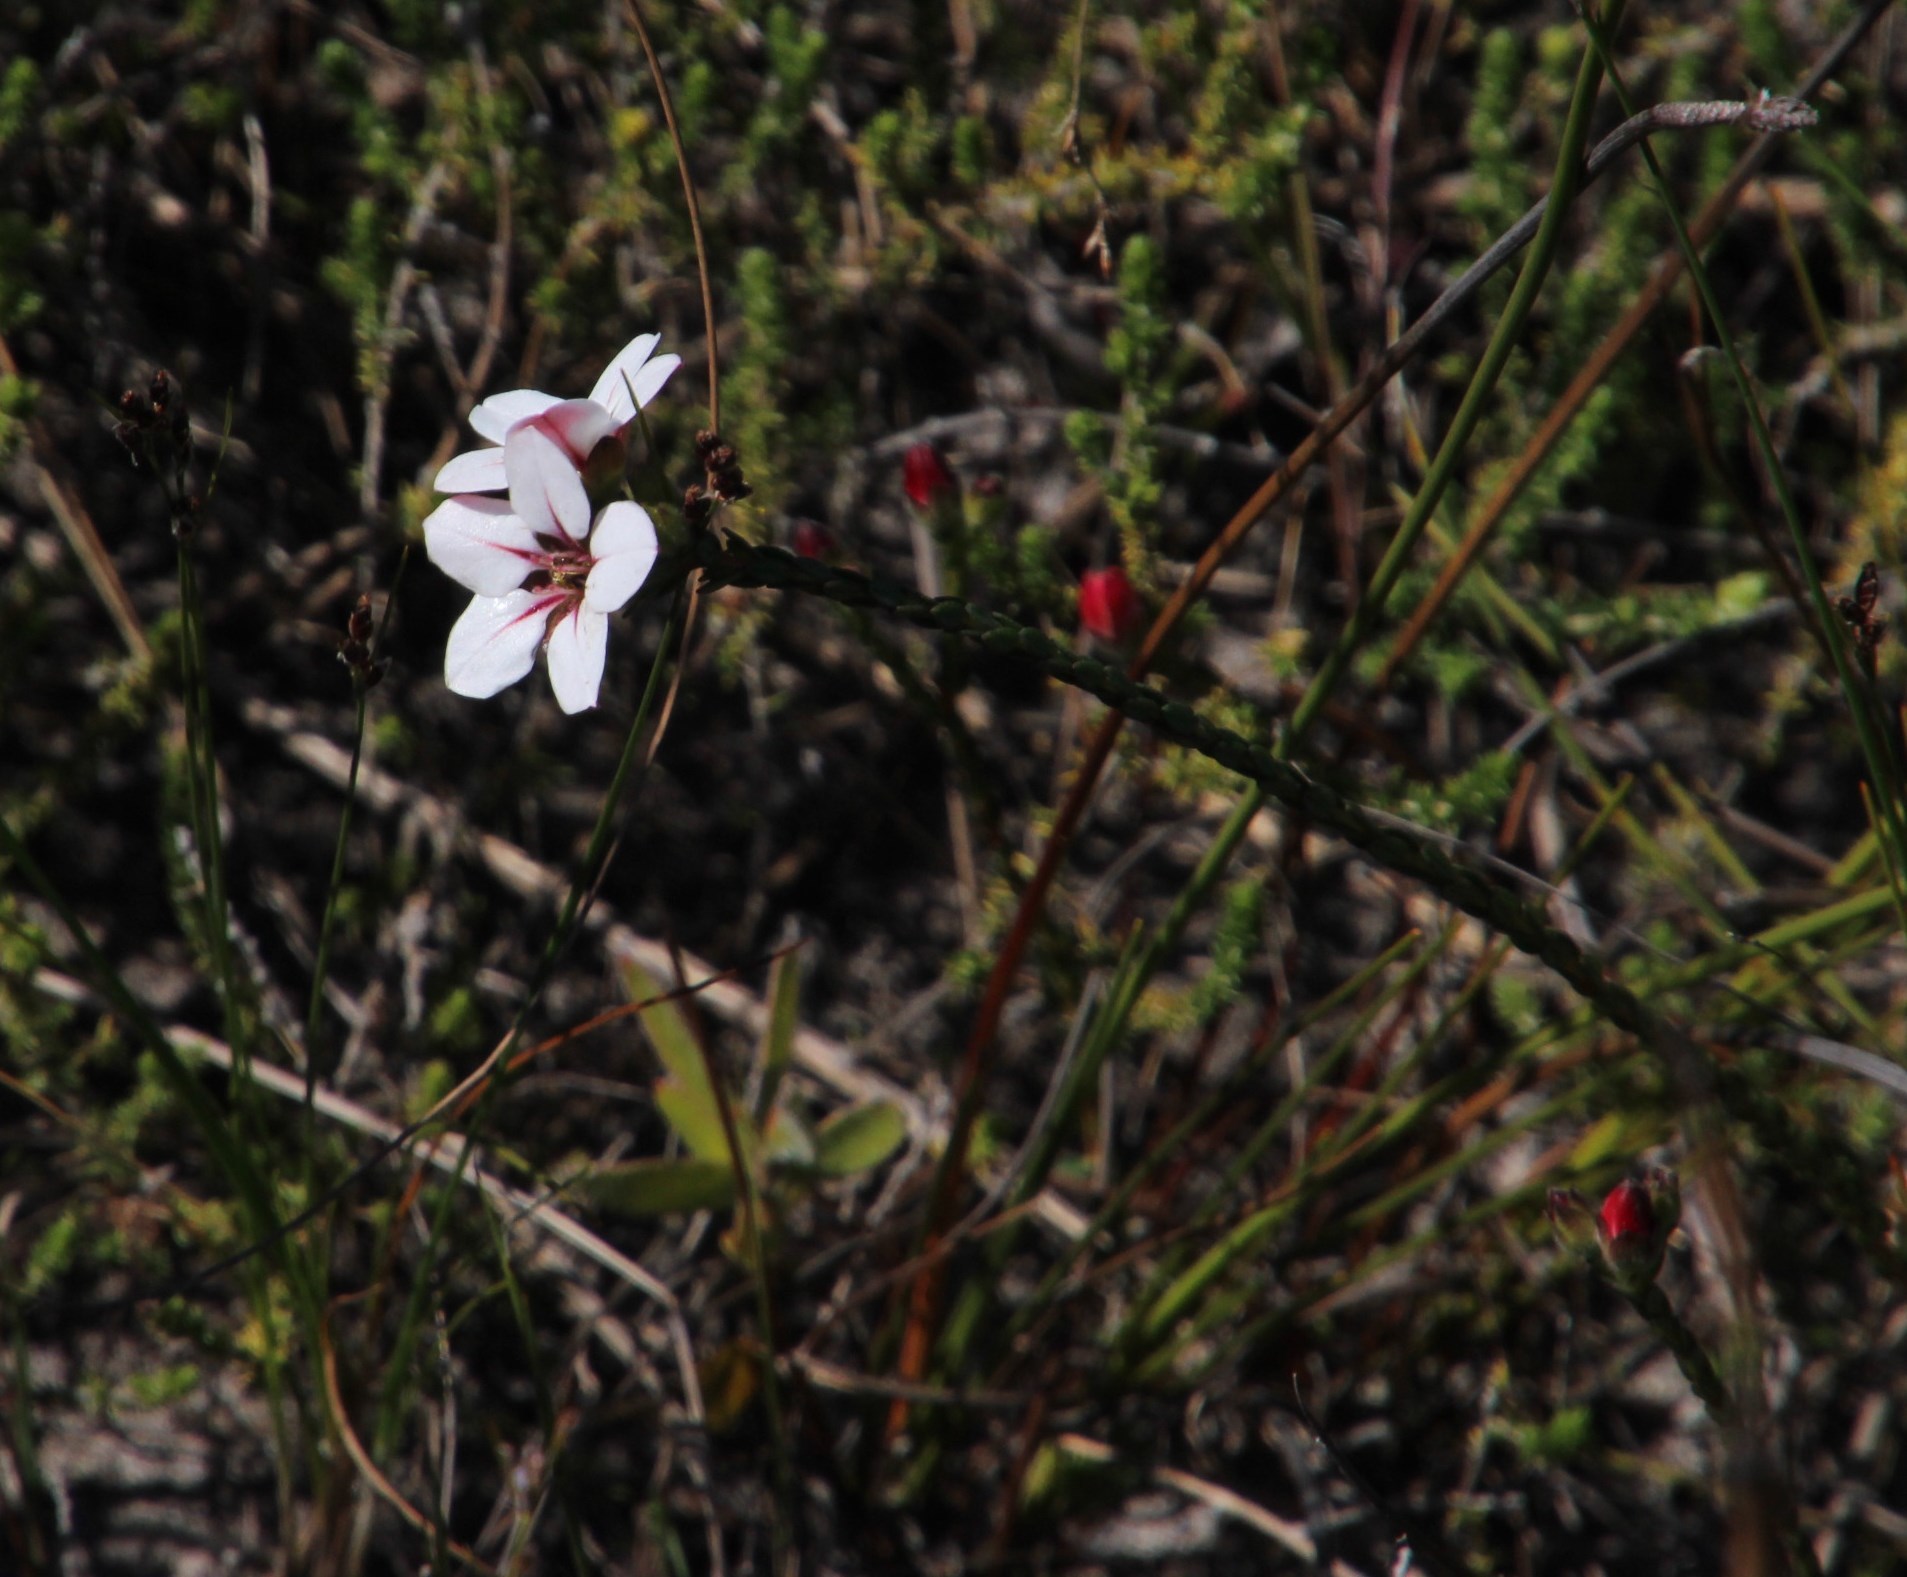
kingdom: Plantae
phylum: Tracheophyta
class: Magnoliopsida
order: Sapindales
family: Rutaceae
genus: Adenandra
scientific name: Adenandra villosa
